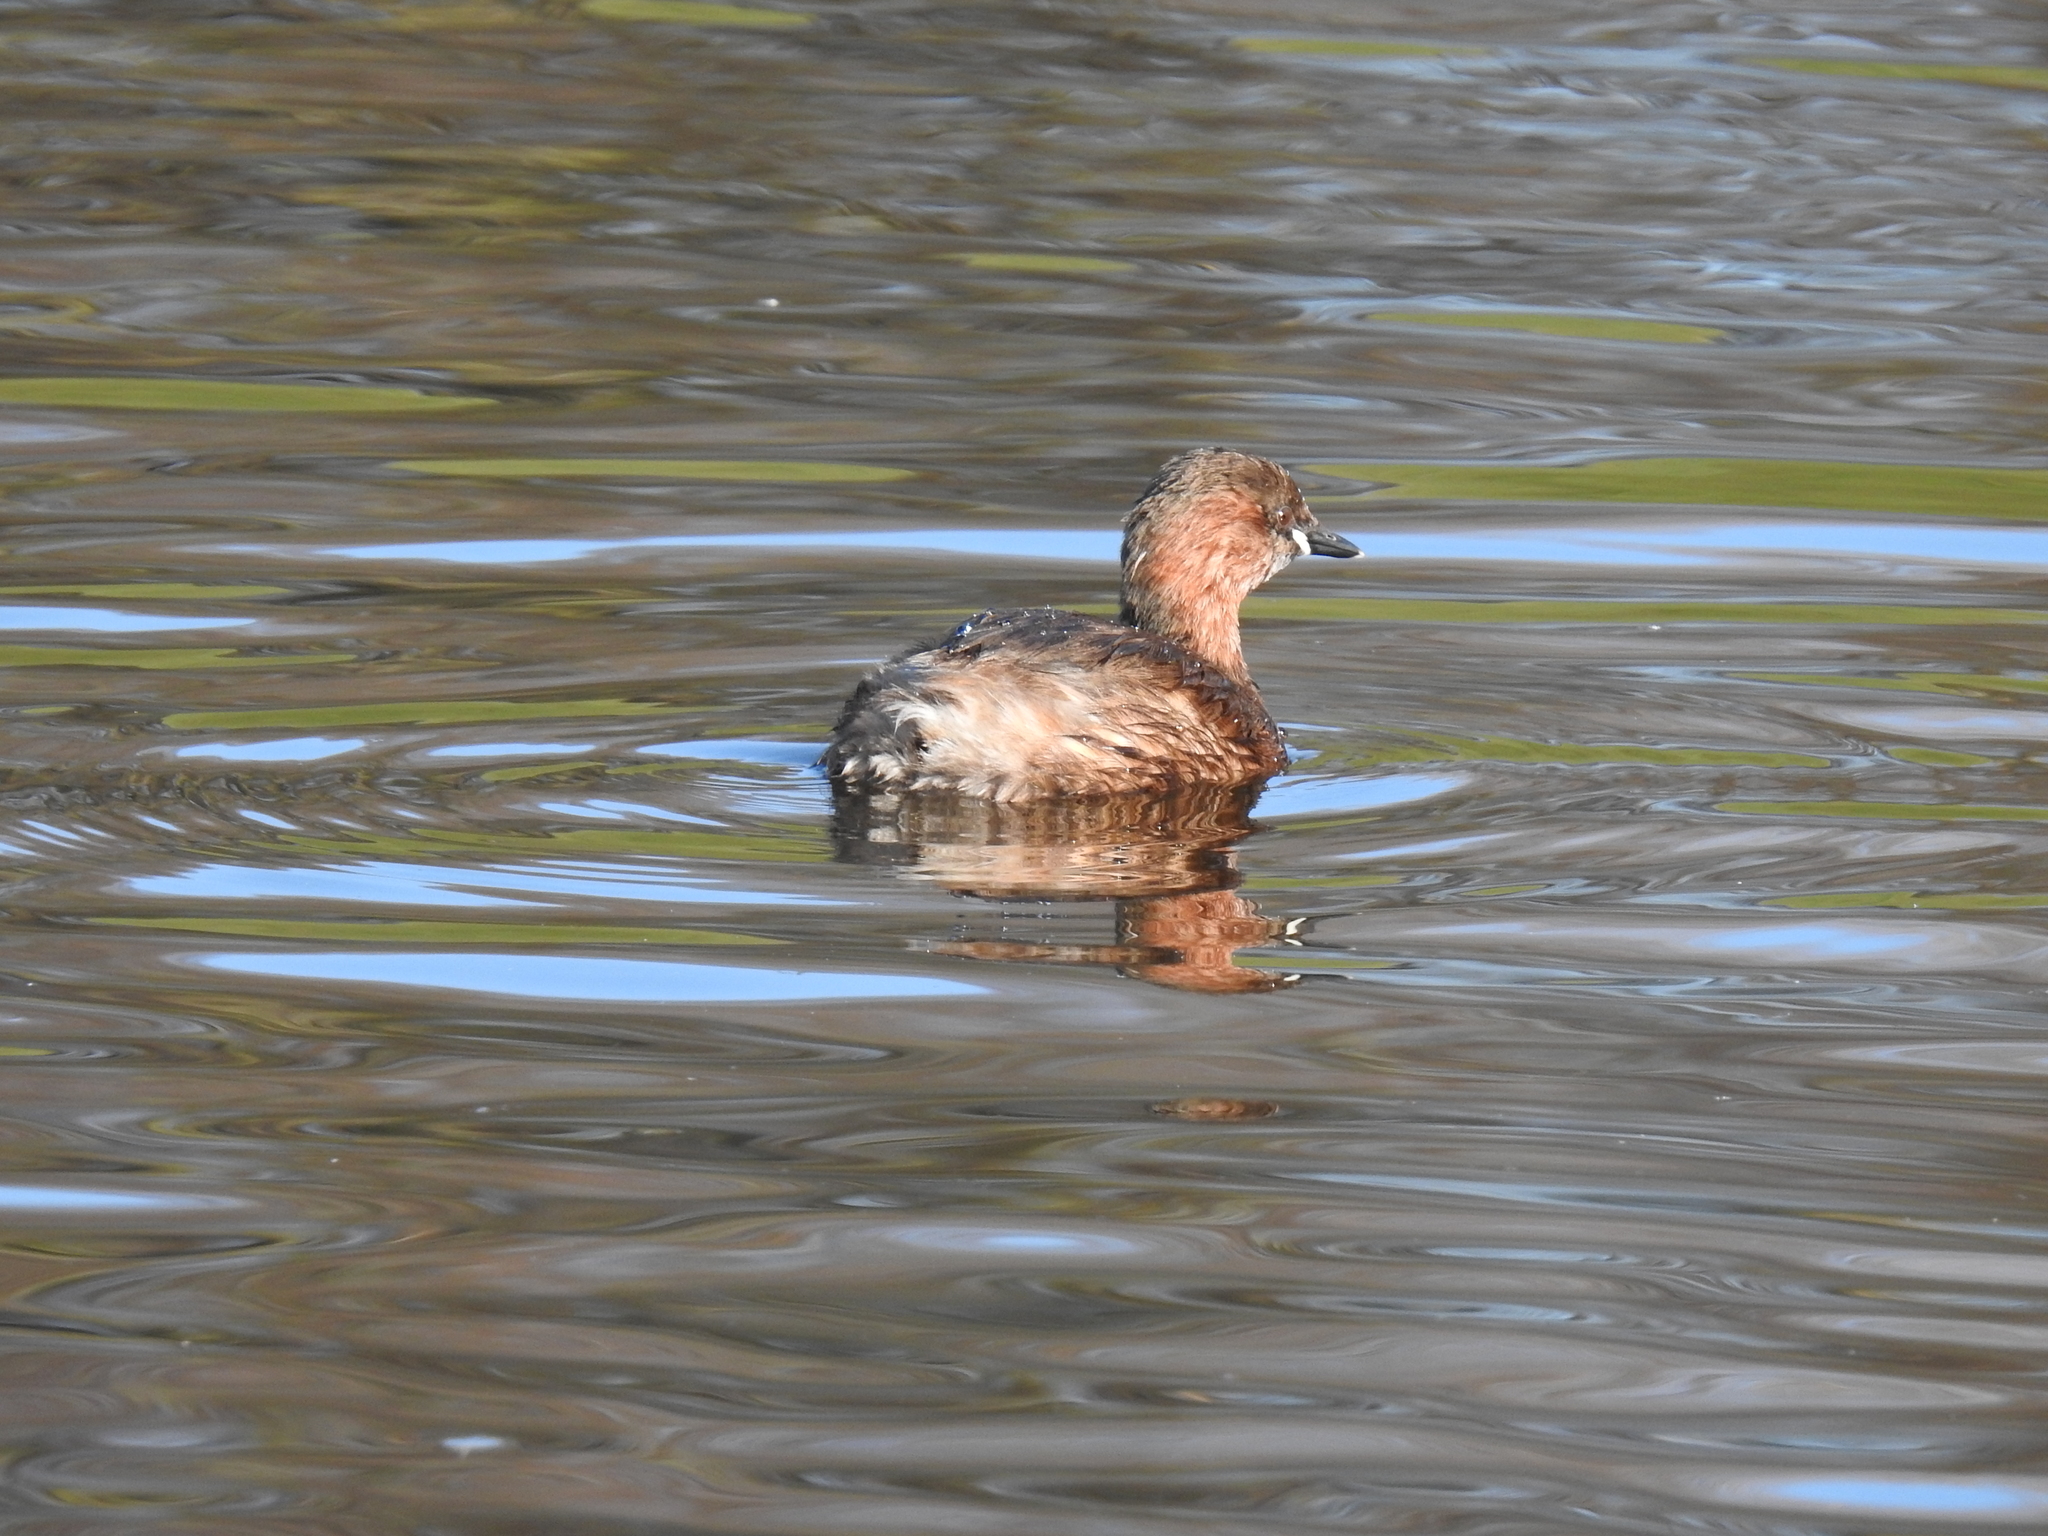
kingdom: Animalia
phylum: Chordata
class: Aves
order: Podicipediformes
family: Podicipedidae
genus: Tachybaptus
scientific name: Tachybaptus ruficollis
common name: Little grebe
